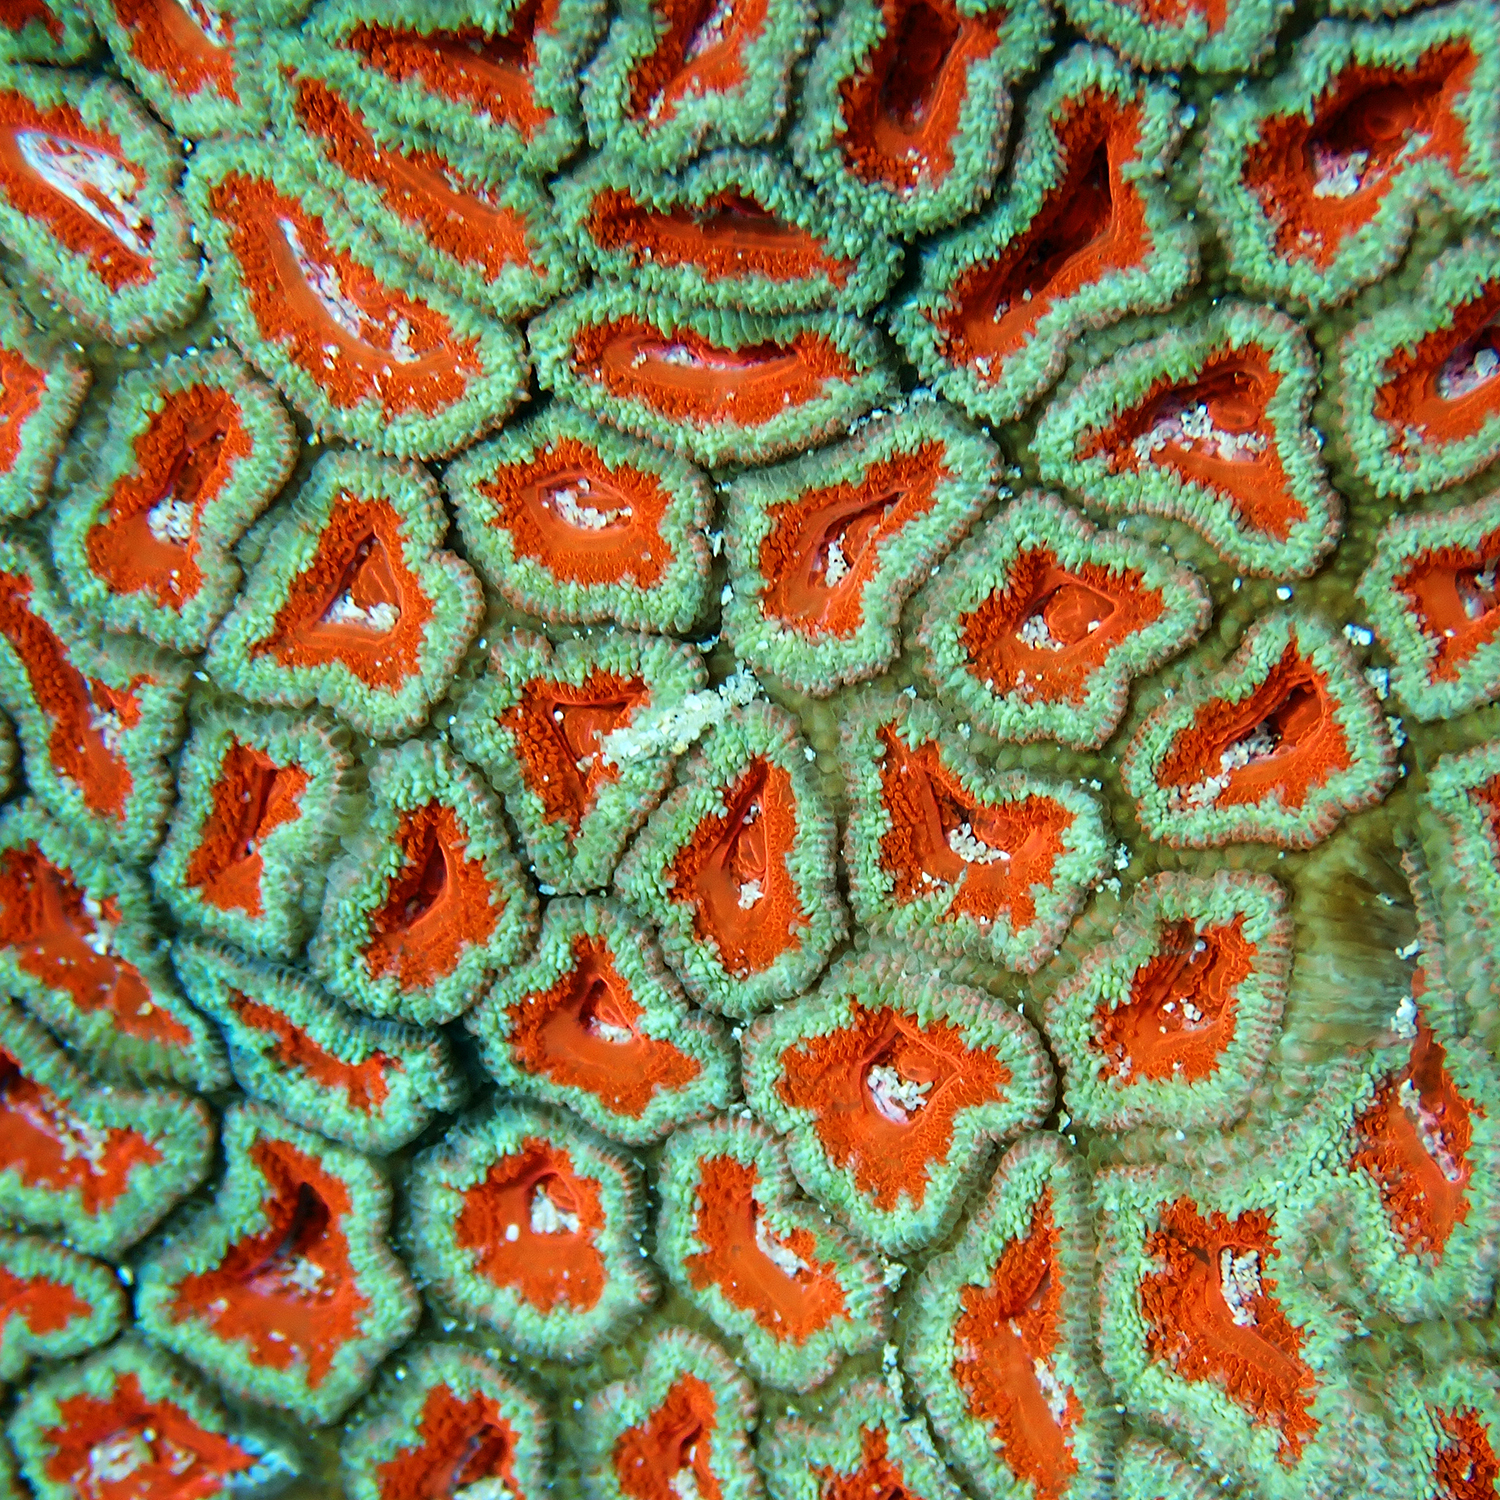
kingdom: Animalia
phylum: Cnidaria
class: Anthozoa
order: Scleractinia
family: Lobophylliidae
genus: Micromussa
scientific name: Micromussa lordhowensis
